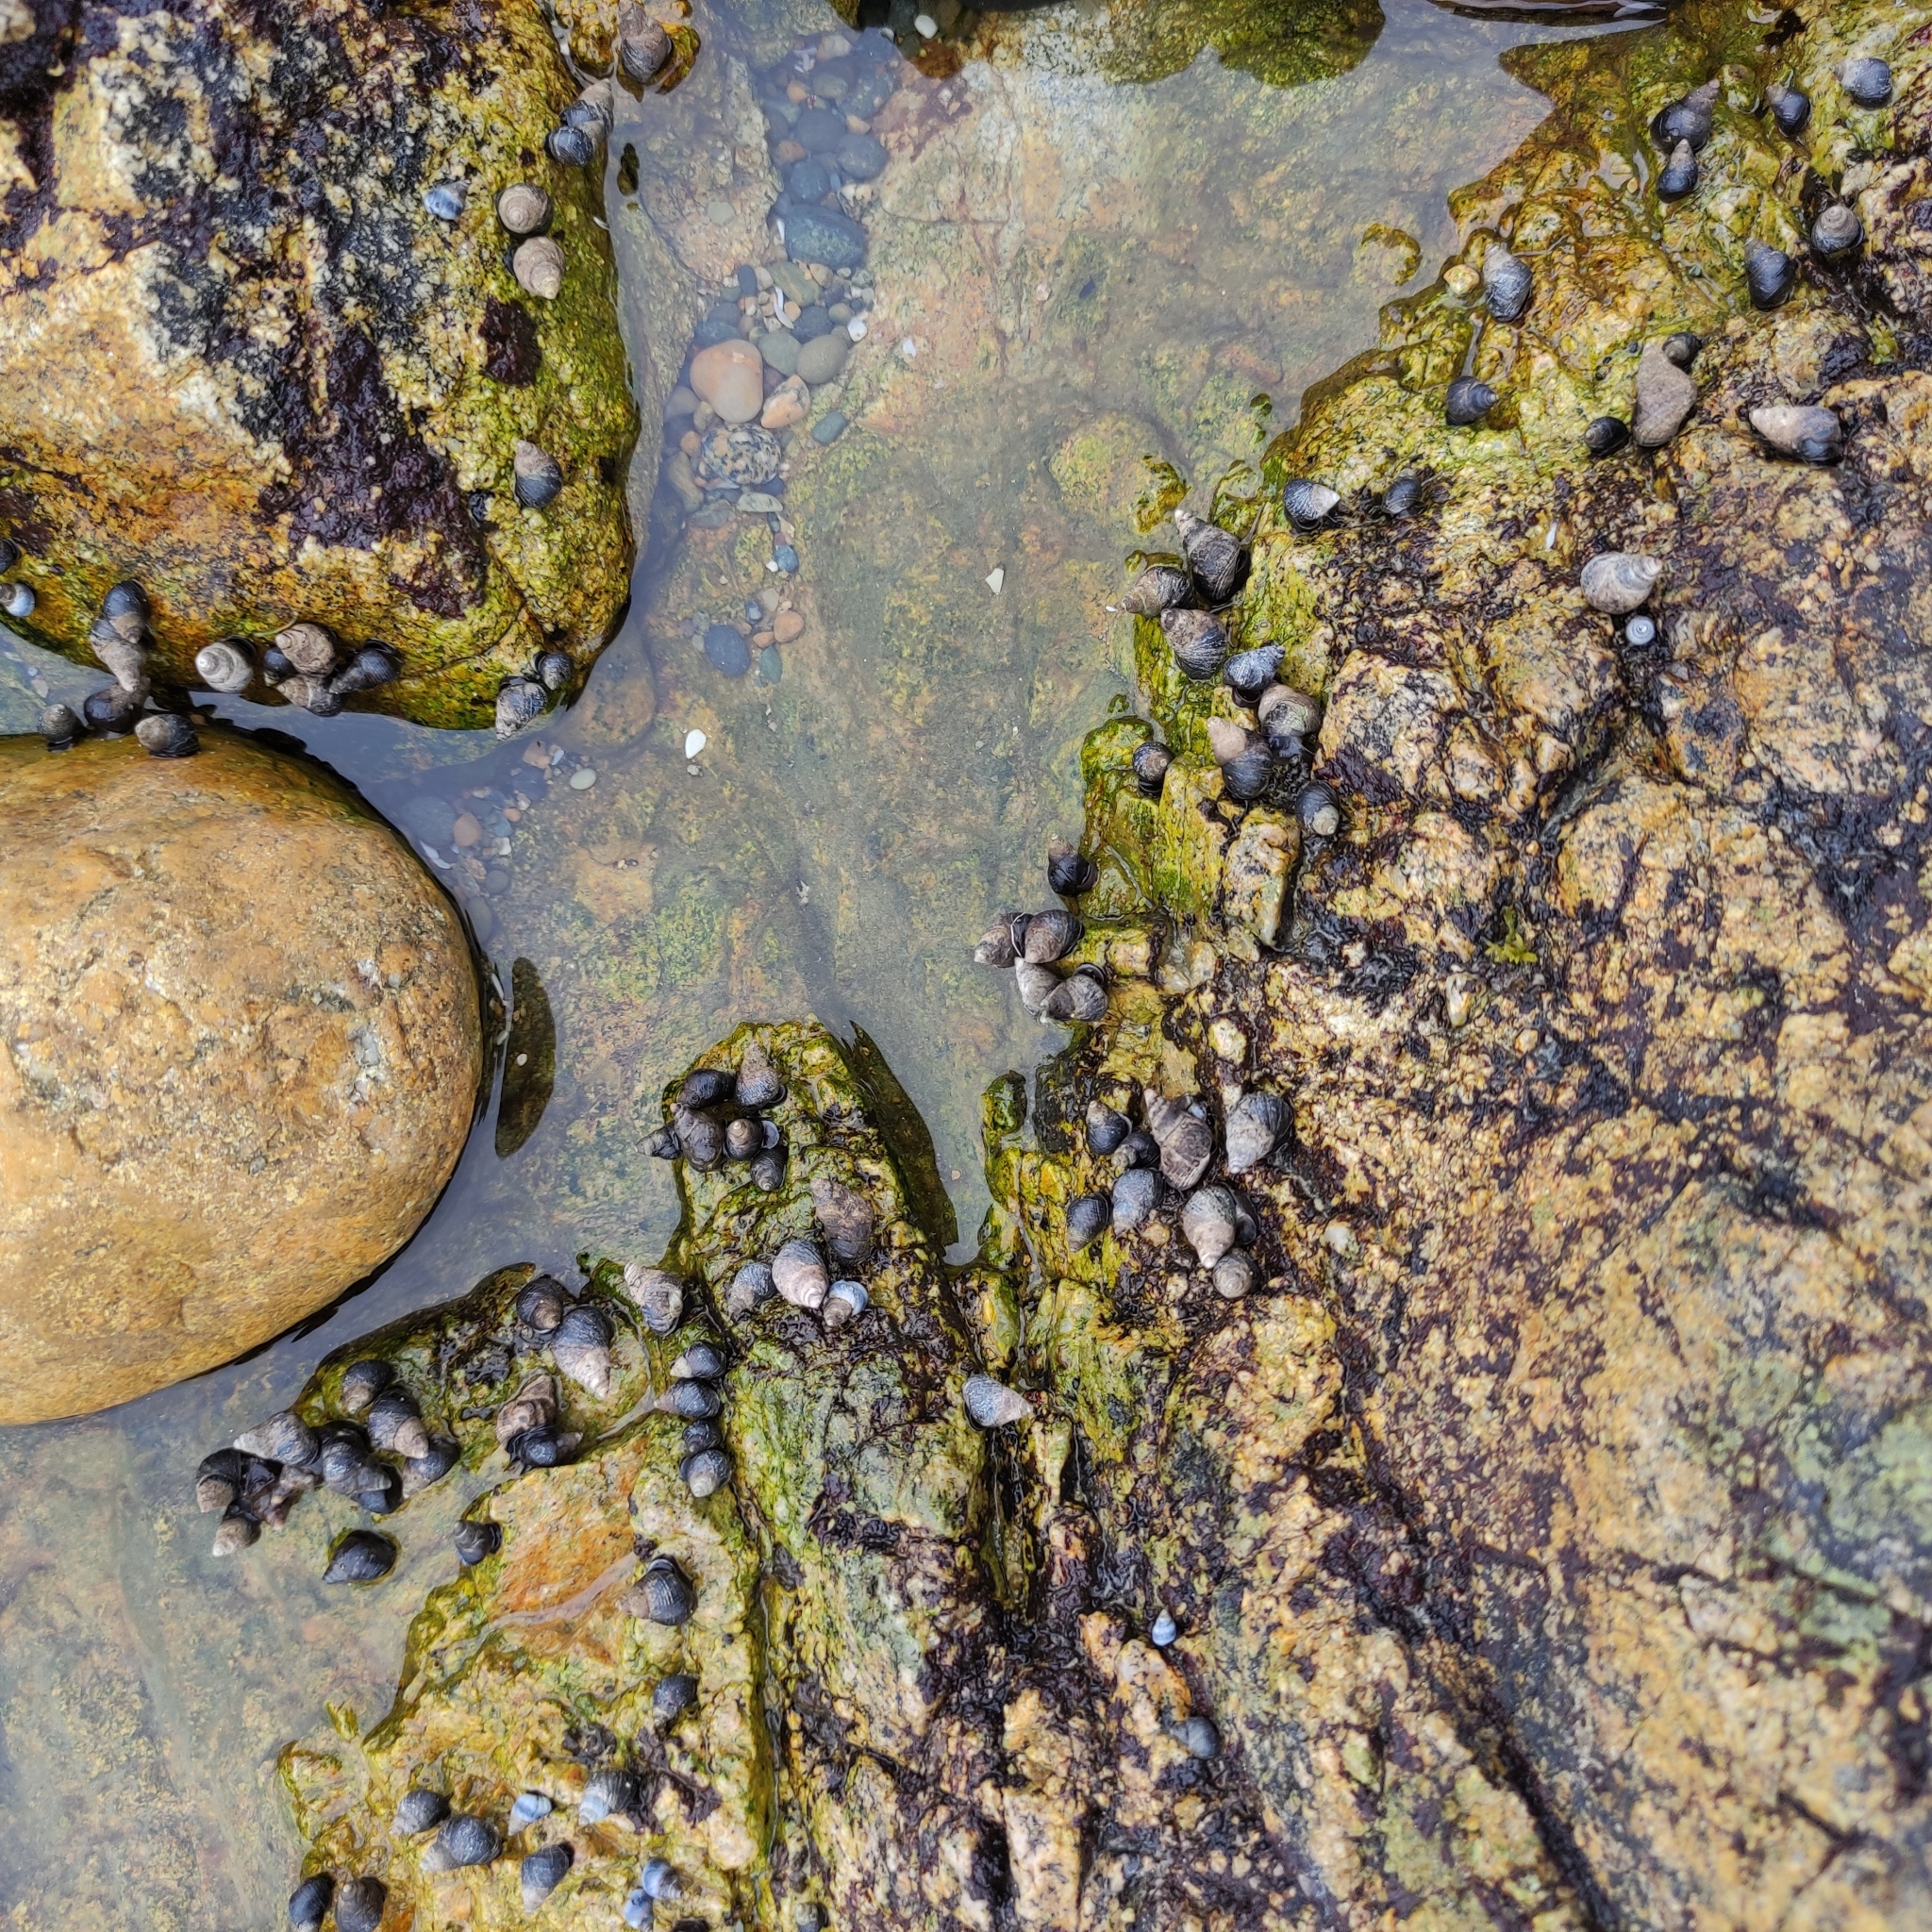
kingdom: Animalia
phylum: Mollusca
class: Gastropoda
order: Littorinimorpha
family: Littorinidae
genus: Austrolittorina
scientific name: Austrolittorina cincta
